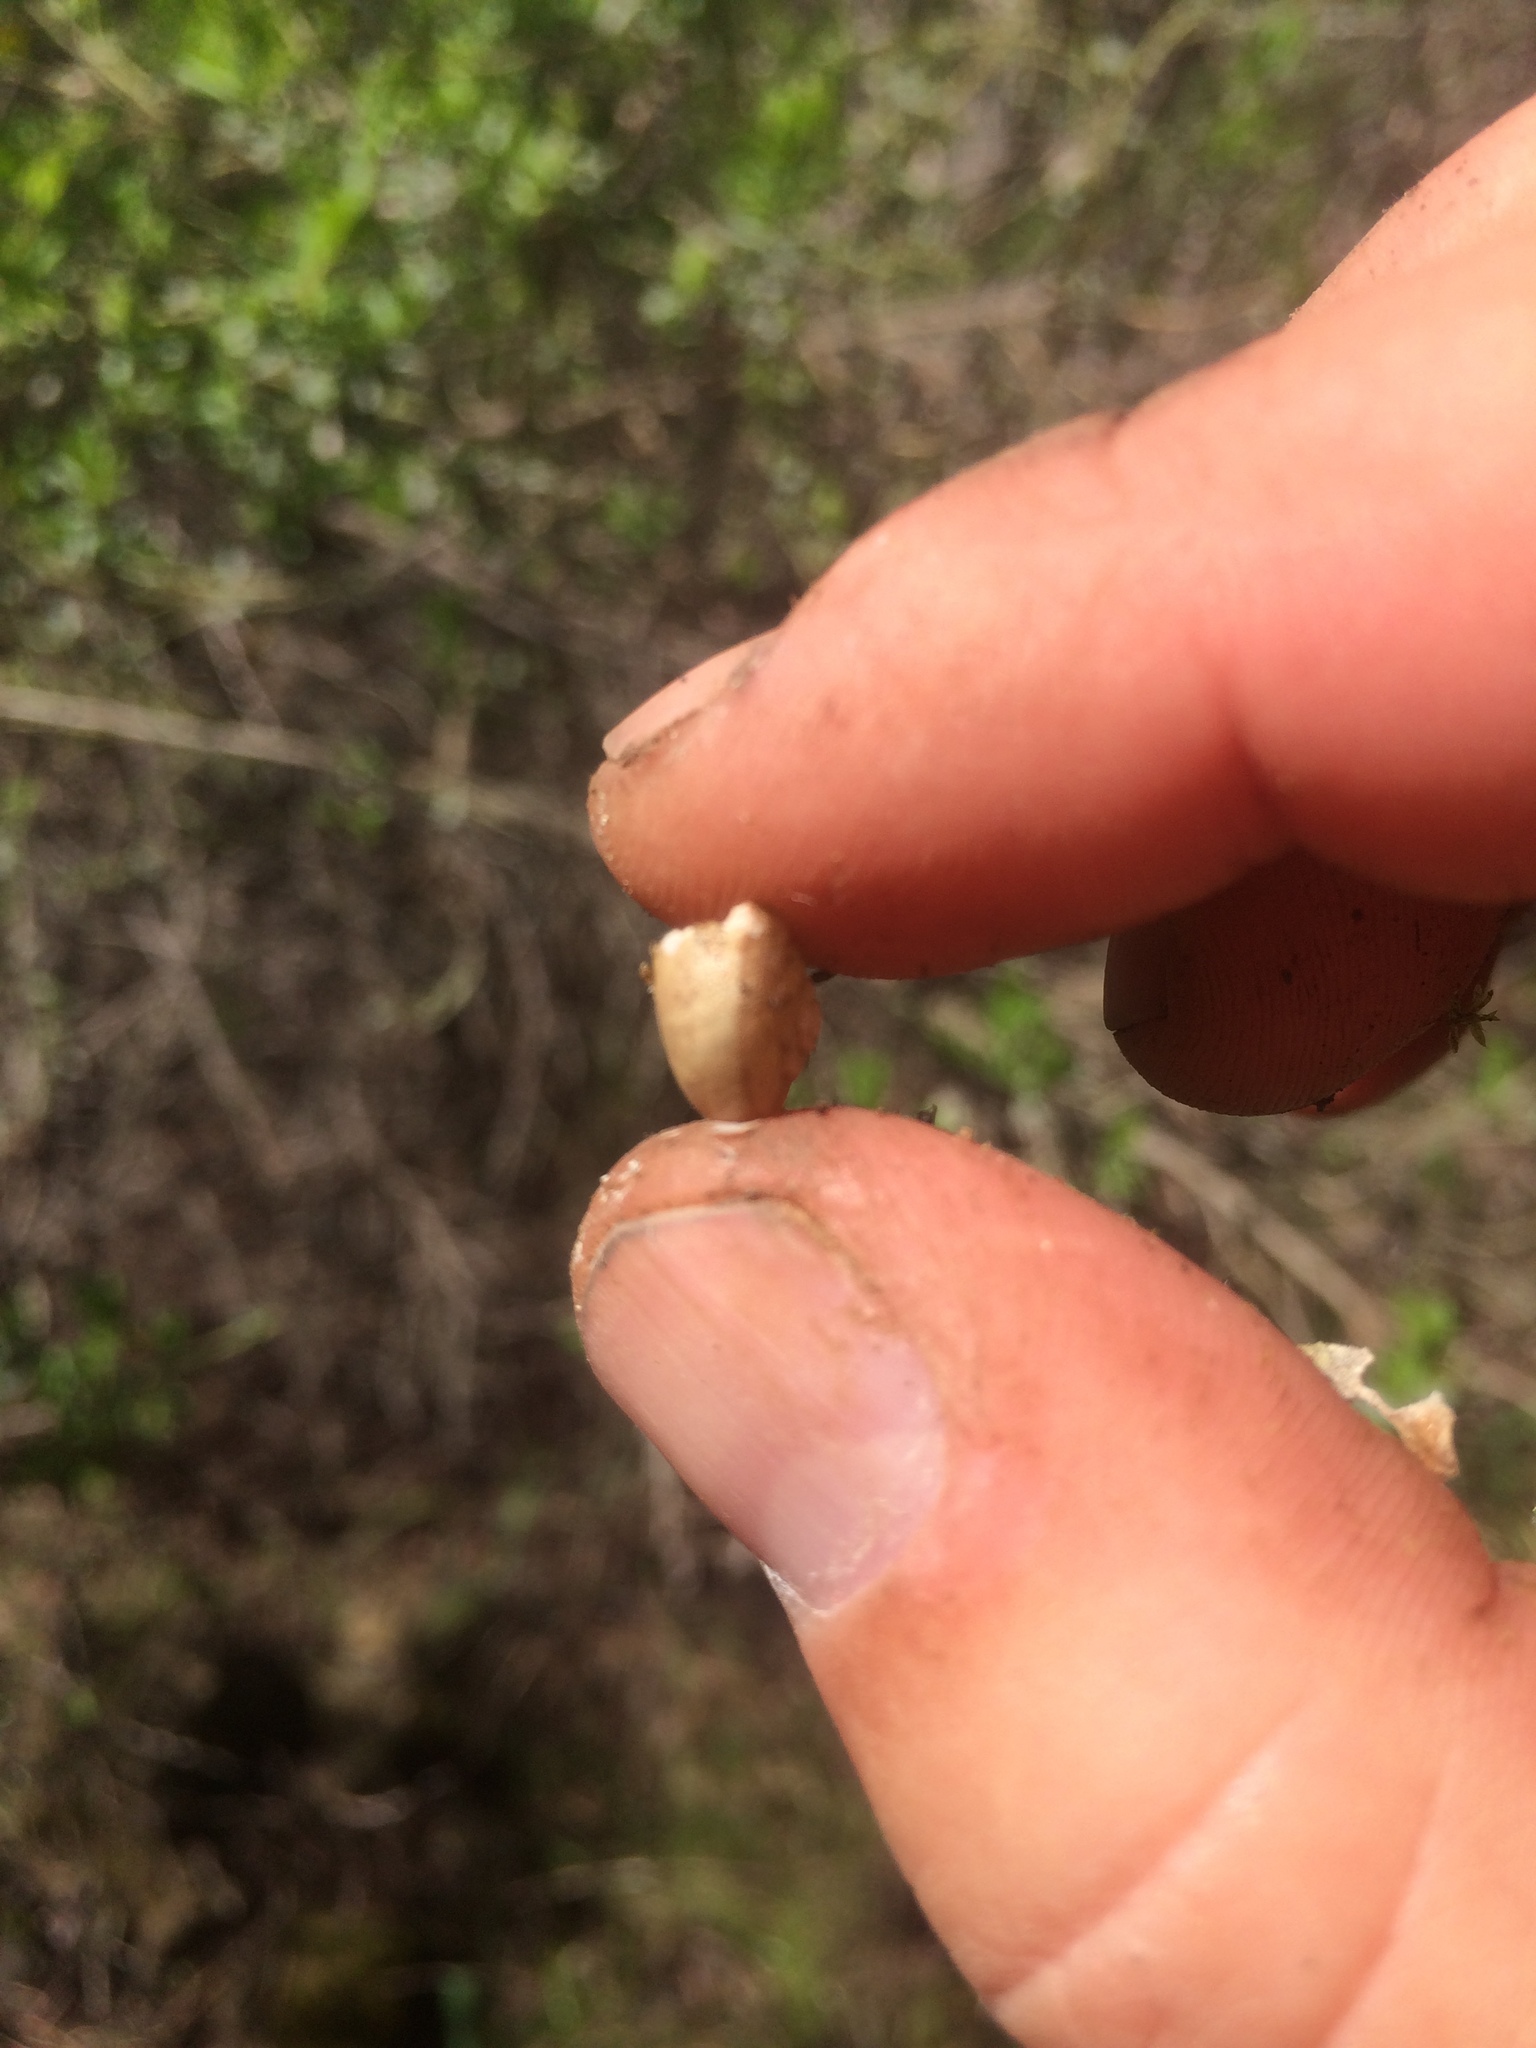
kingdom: Animalia
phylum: Mollusca
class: Gastropoda
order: Stylommatophora
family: Xanthonychidae
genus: Helminthoglypta
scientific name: Helminthoglypta sonoma
